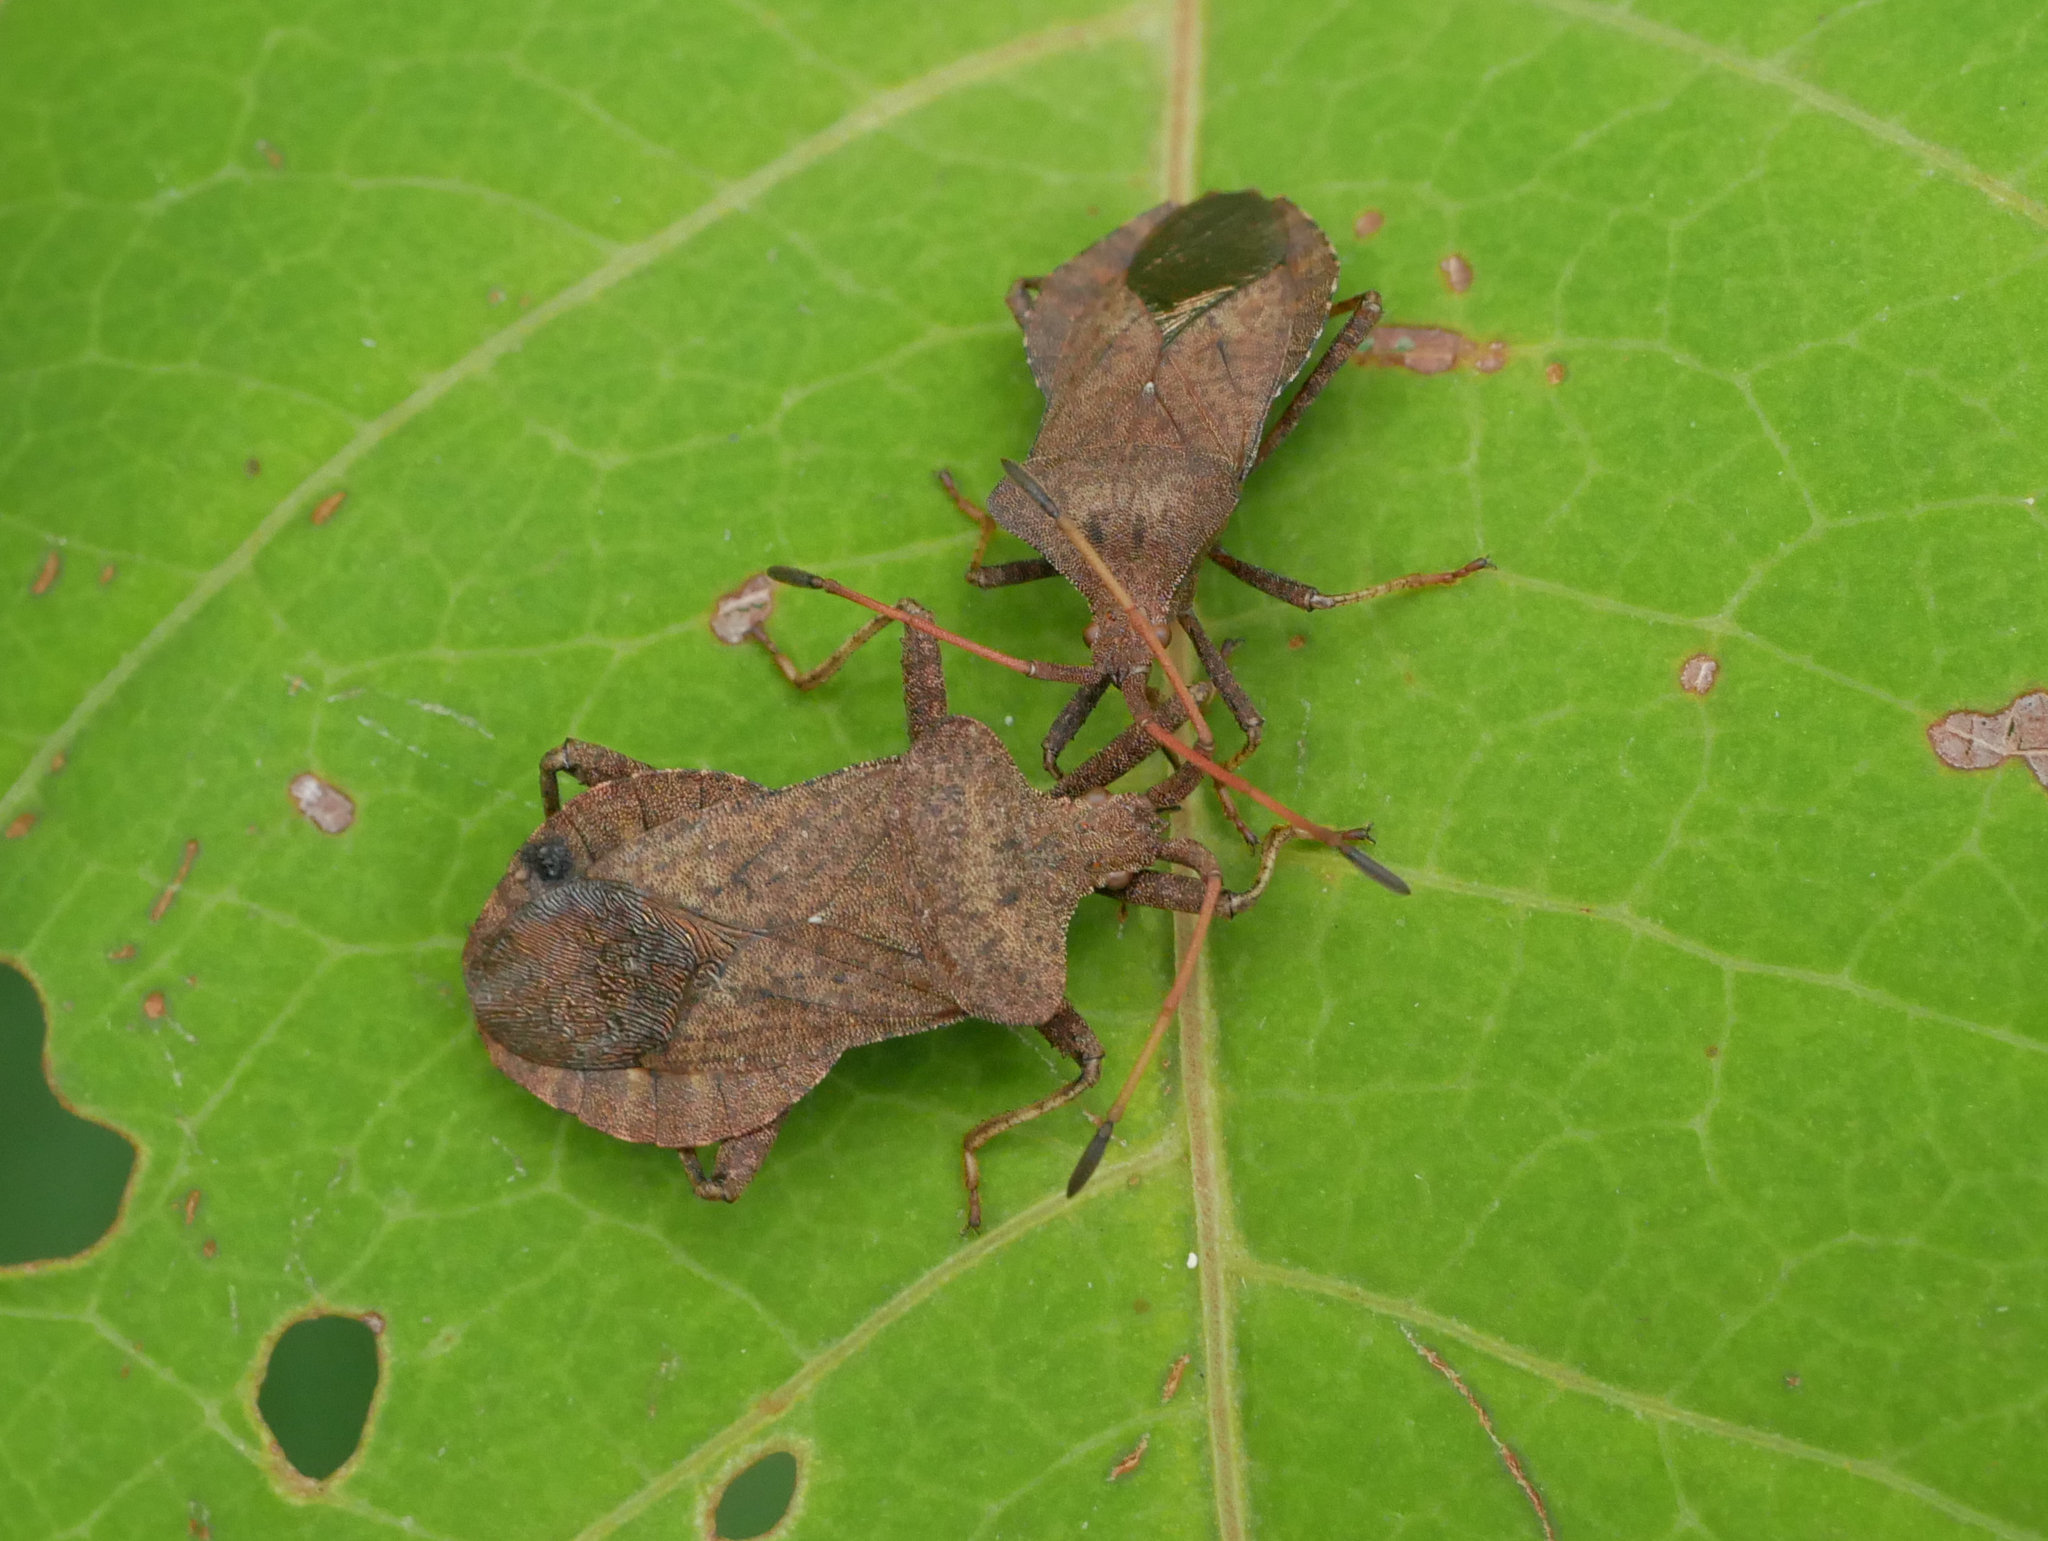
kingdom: Animalia
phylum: Arthropoda
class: Insecta
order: Hemiptera
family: Coreidae
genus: Coreus
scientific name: Coreus marginatus
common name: Dock bug
